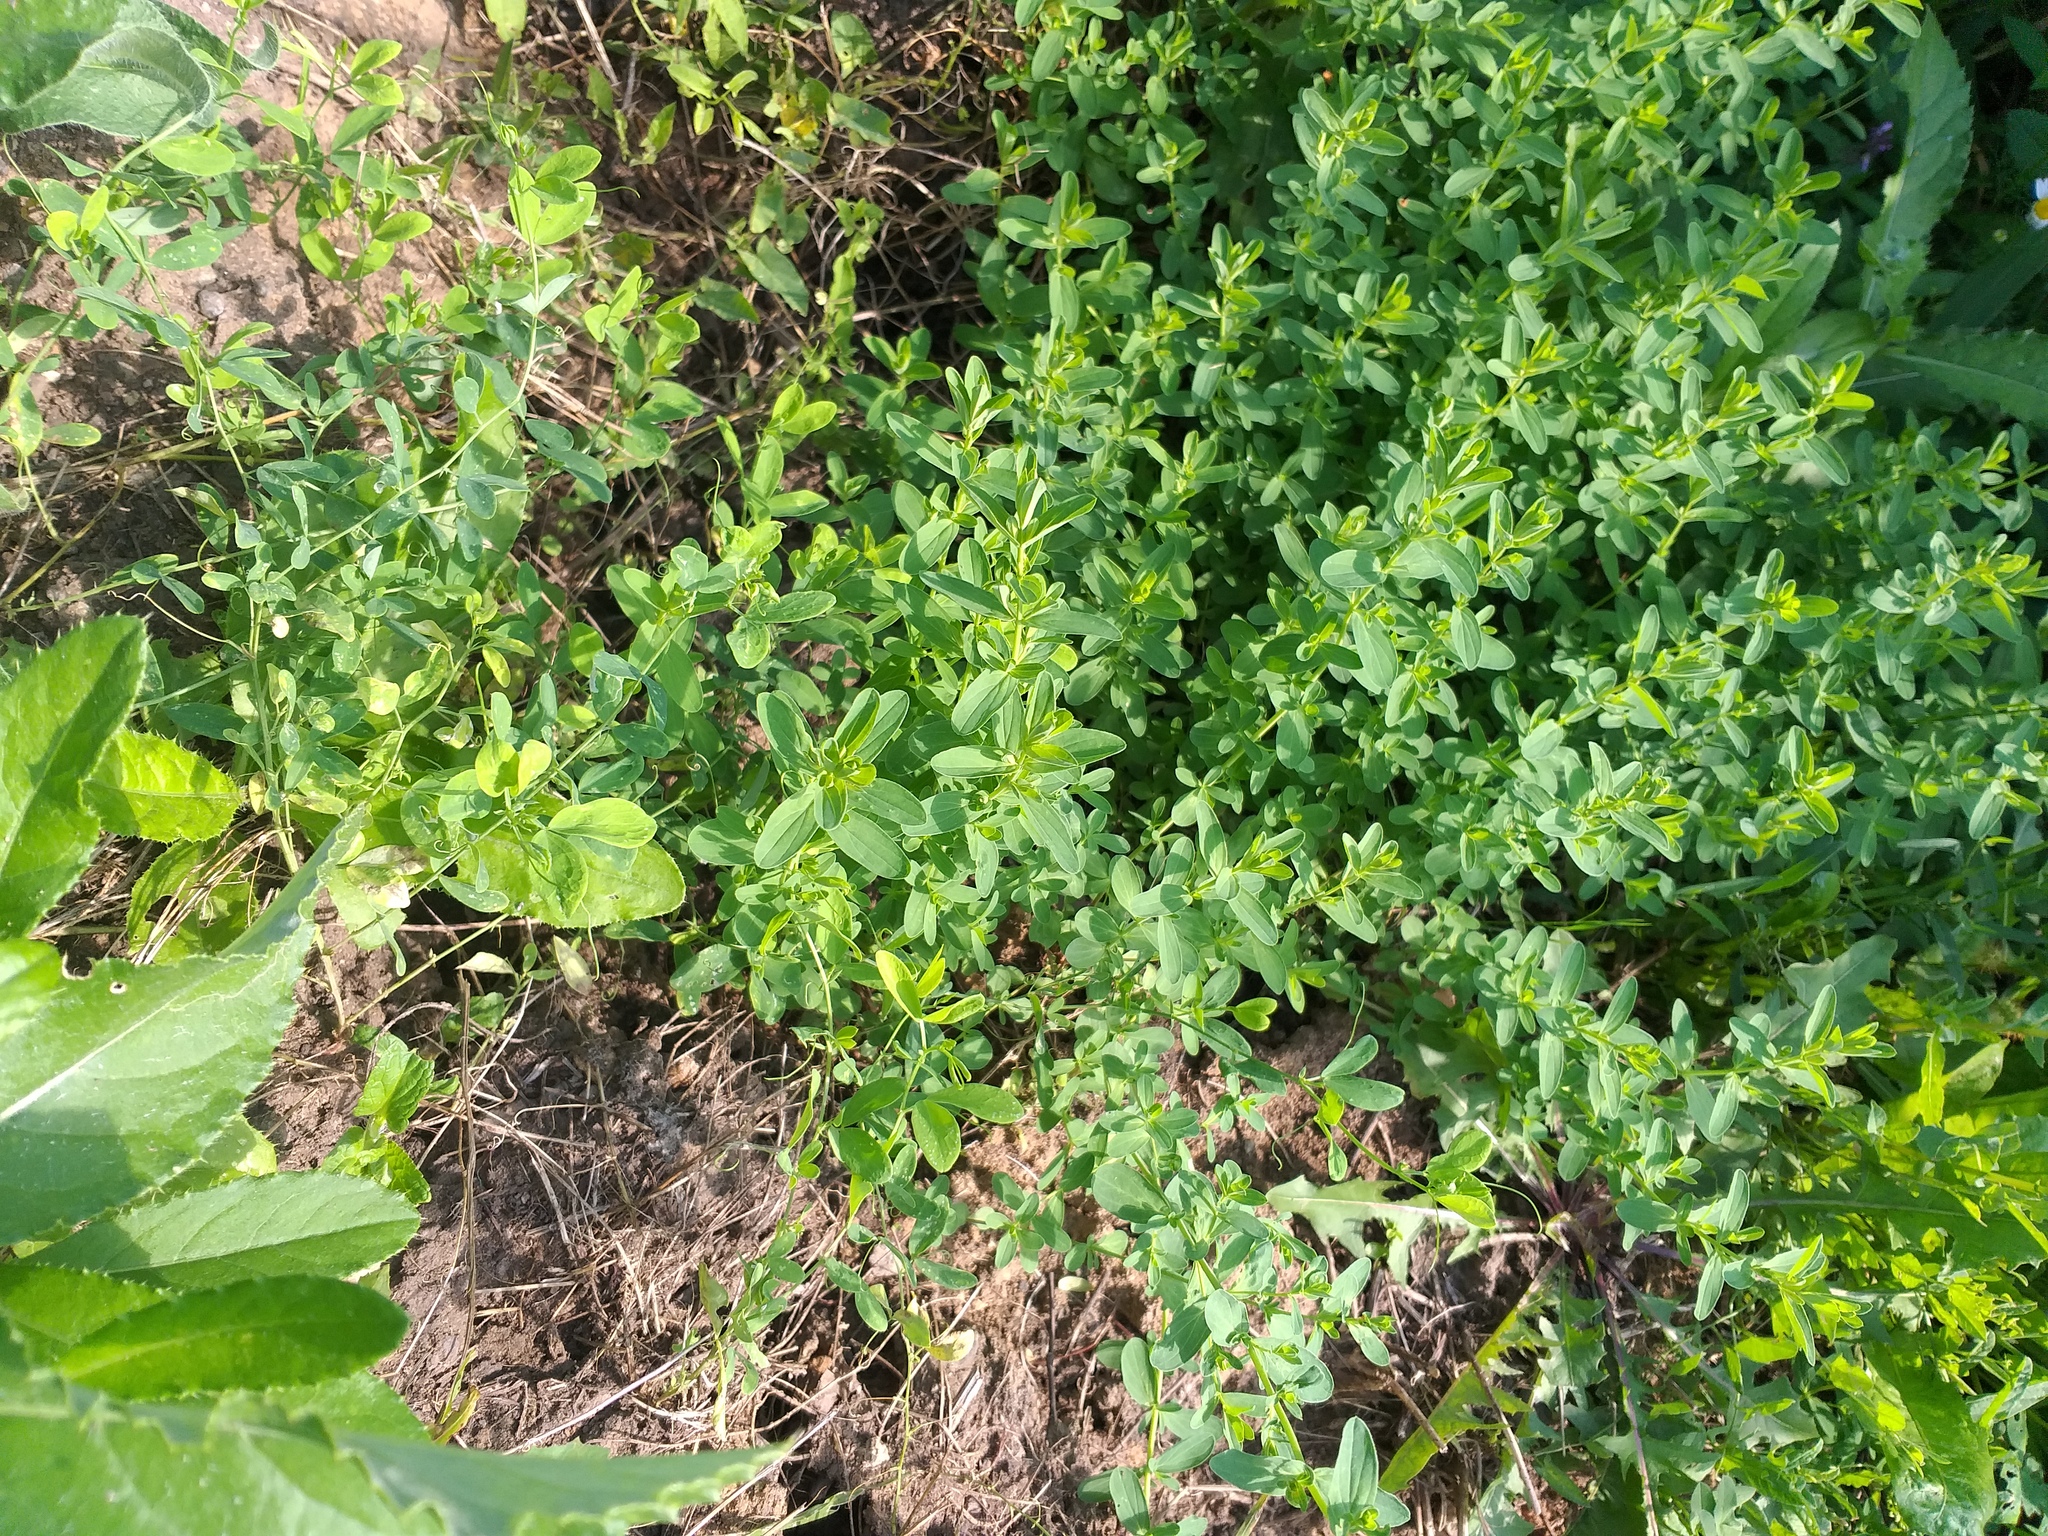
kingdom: Plantae
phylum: Tracheophyta
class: Magnoliopsida
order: Malpighiales
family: Hypericaceae
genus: Hypericum
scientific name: Hypericum perforatum
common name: Common st. johnswort
